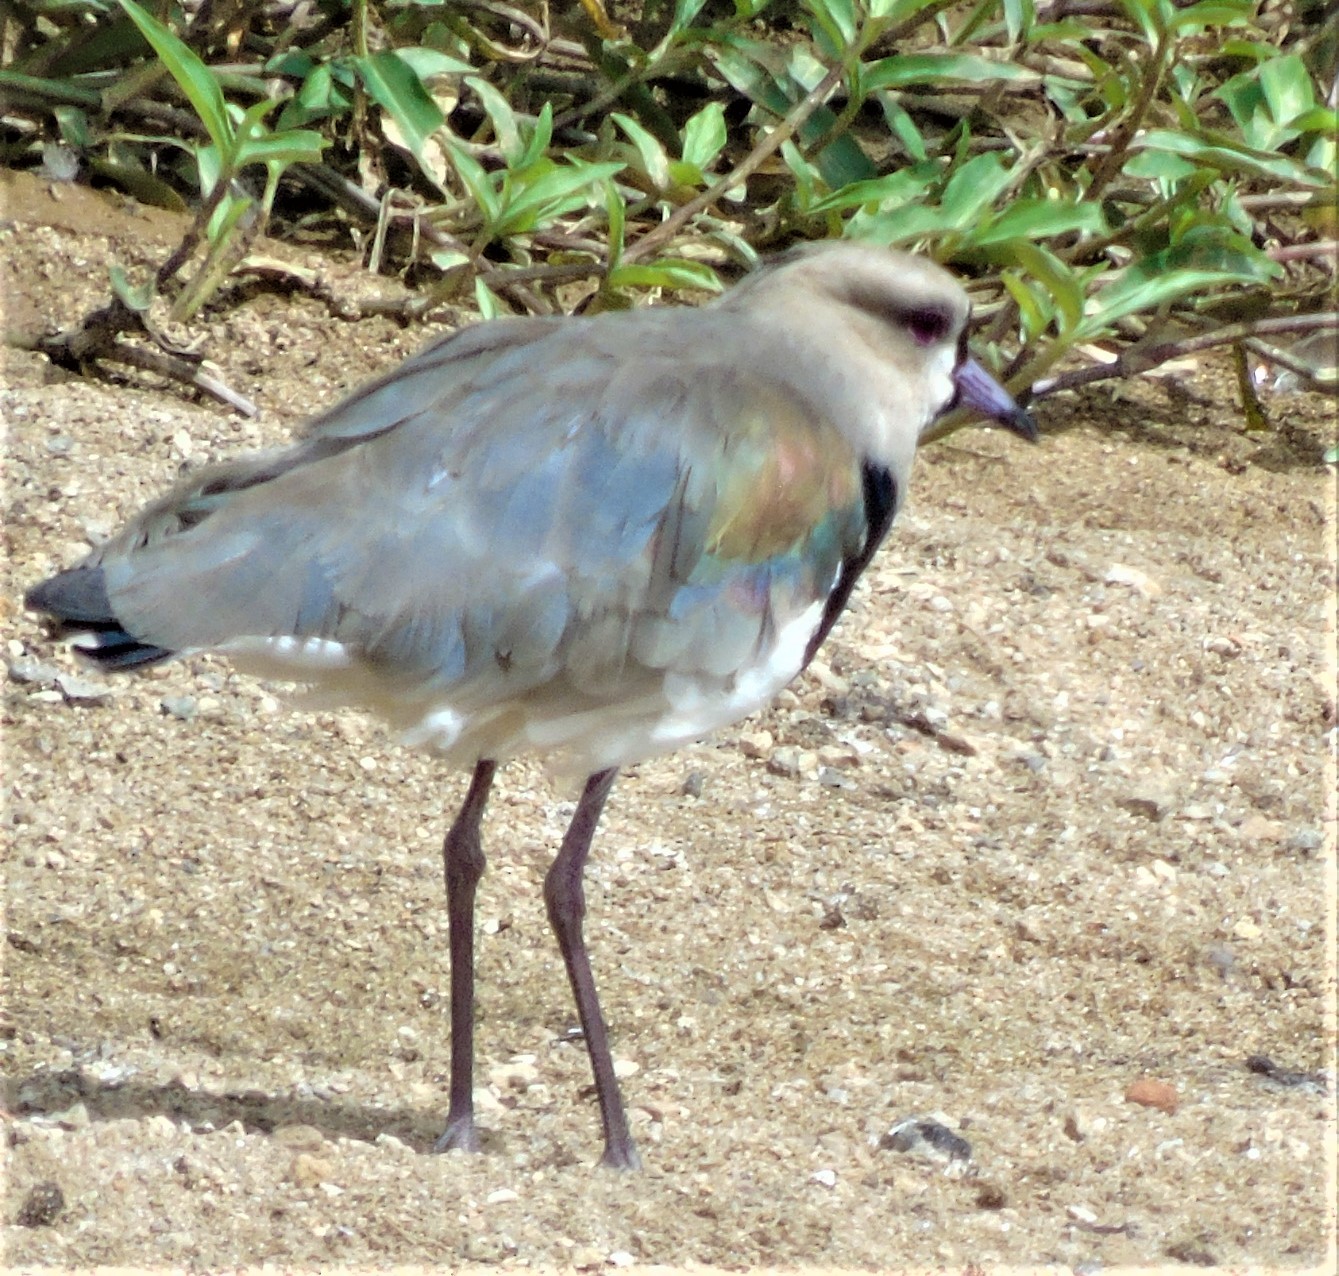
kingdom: Animalia
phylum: Chordata
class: Aves
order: Charadriiformes
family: Charadriidae
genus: Vanellus
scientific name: Vanellus chilensis
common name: Southern lapwing
